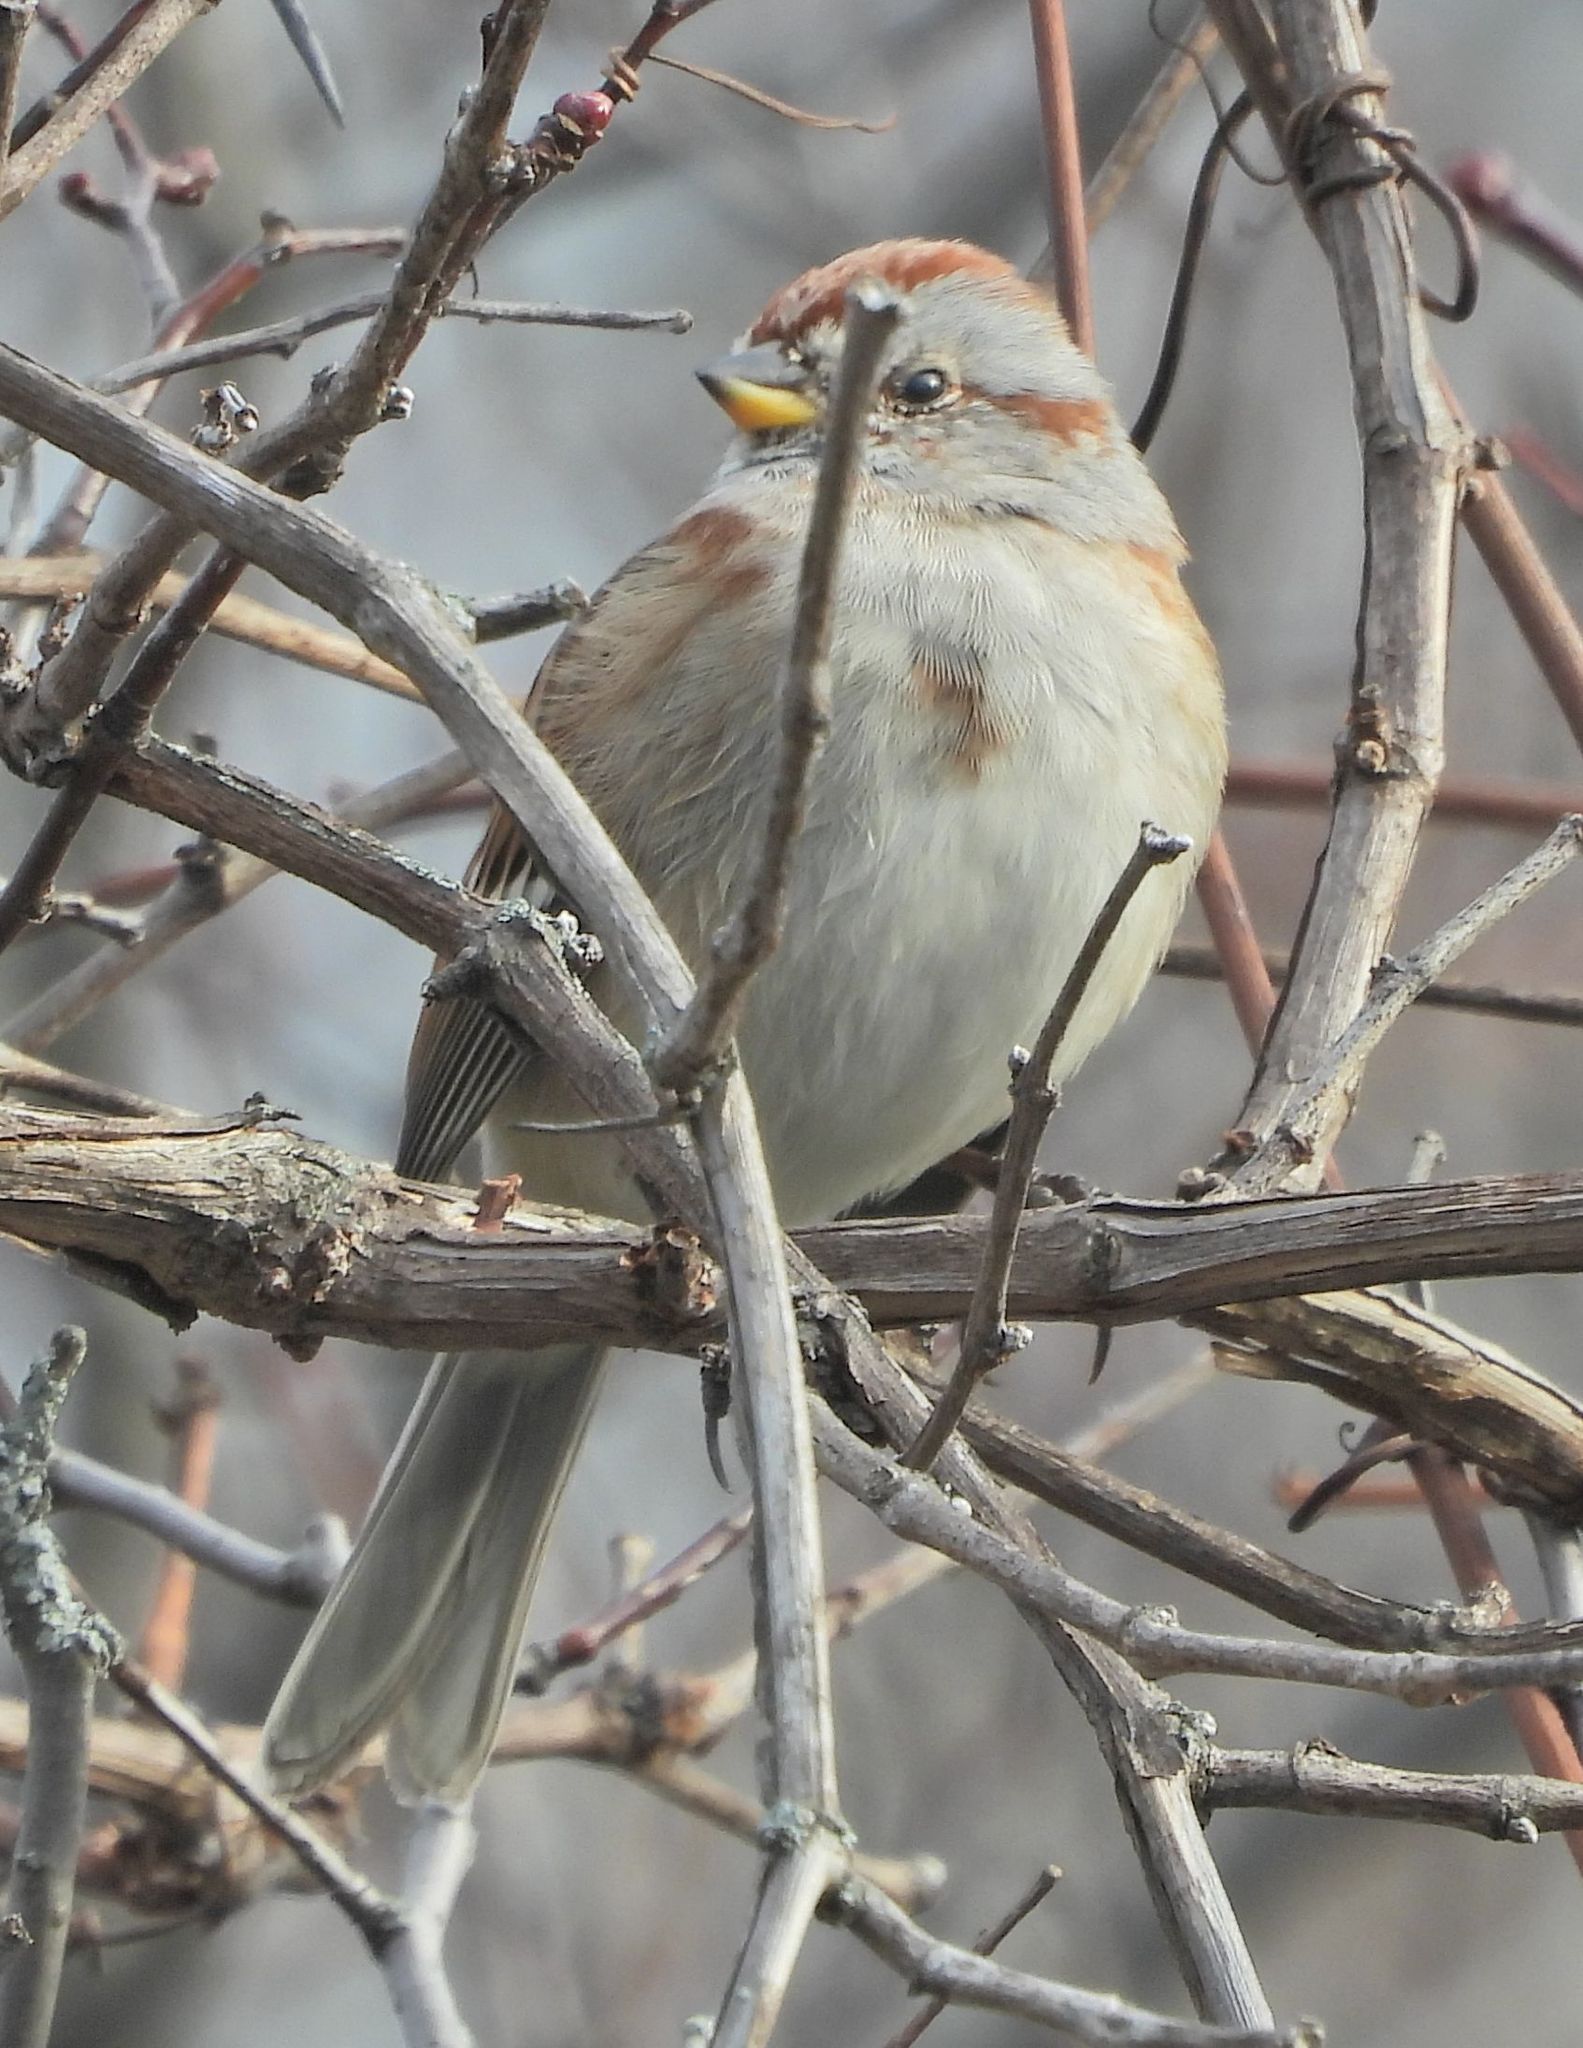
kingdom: Animalia
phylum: Chordata
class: Aves
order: Passeriformes
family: Passerellidae
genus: Spizelloides
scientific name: Spizelloides arborea
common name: American tree sparrow
